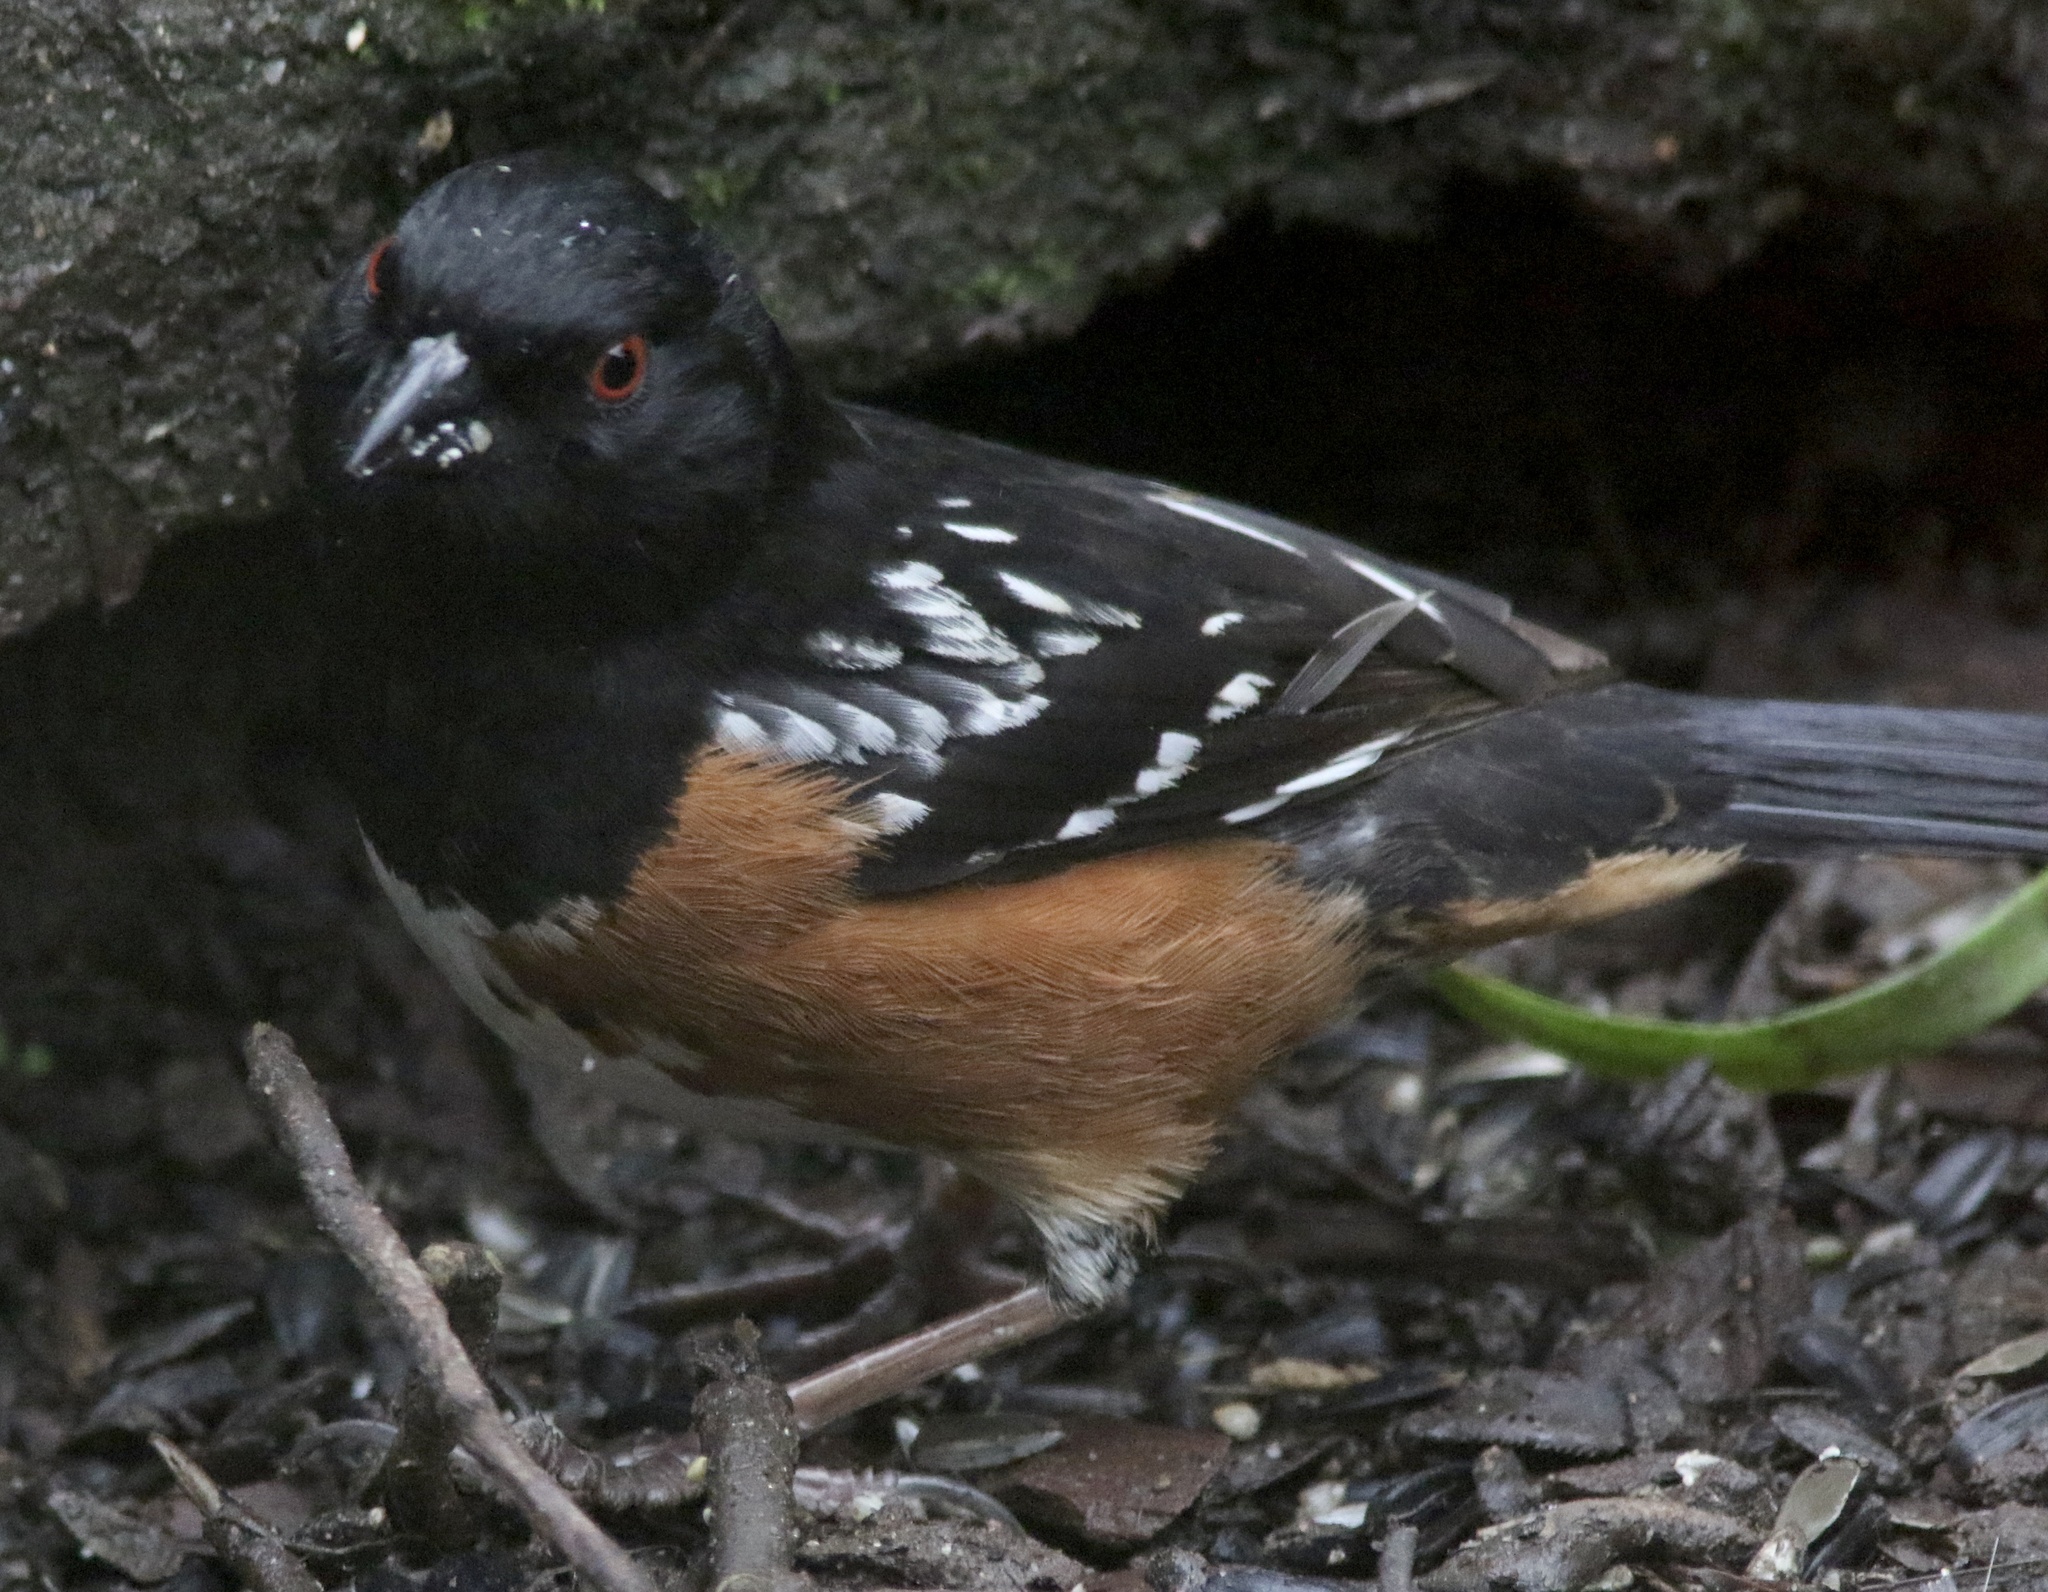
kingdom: Animalia
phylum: Chordata
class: Aves
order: Passeriformes
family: Passerellidae
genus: Pipilo
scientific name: Pipilo maculatus
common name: Spotted towhee
